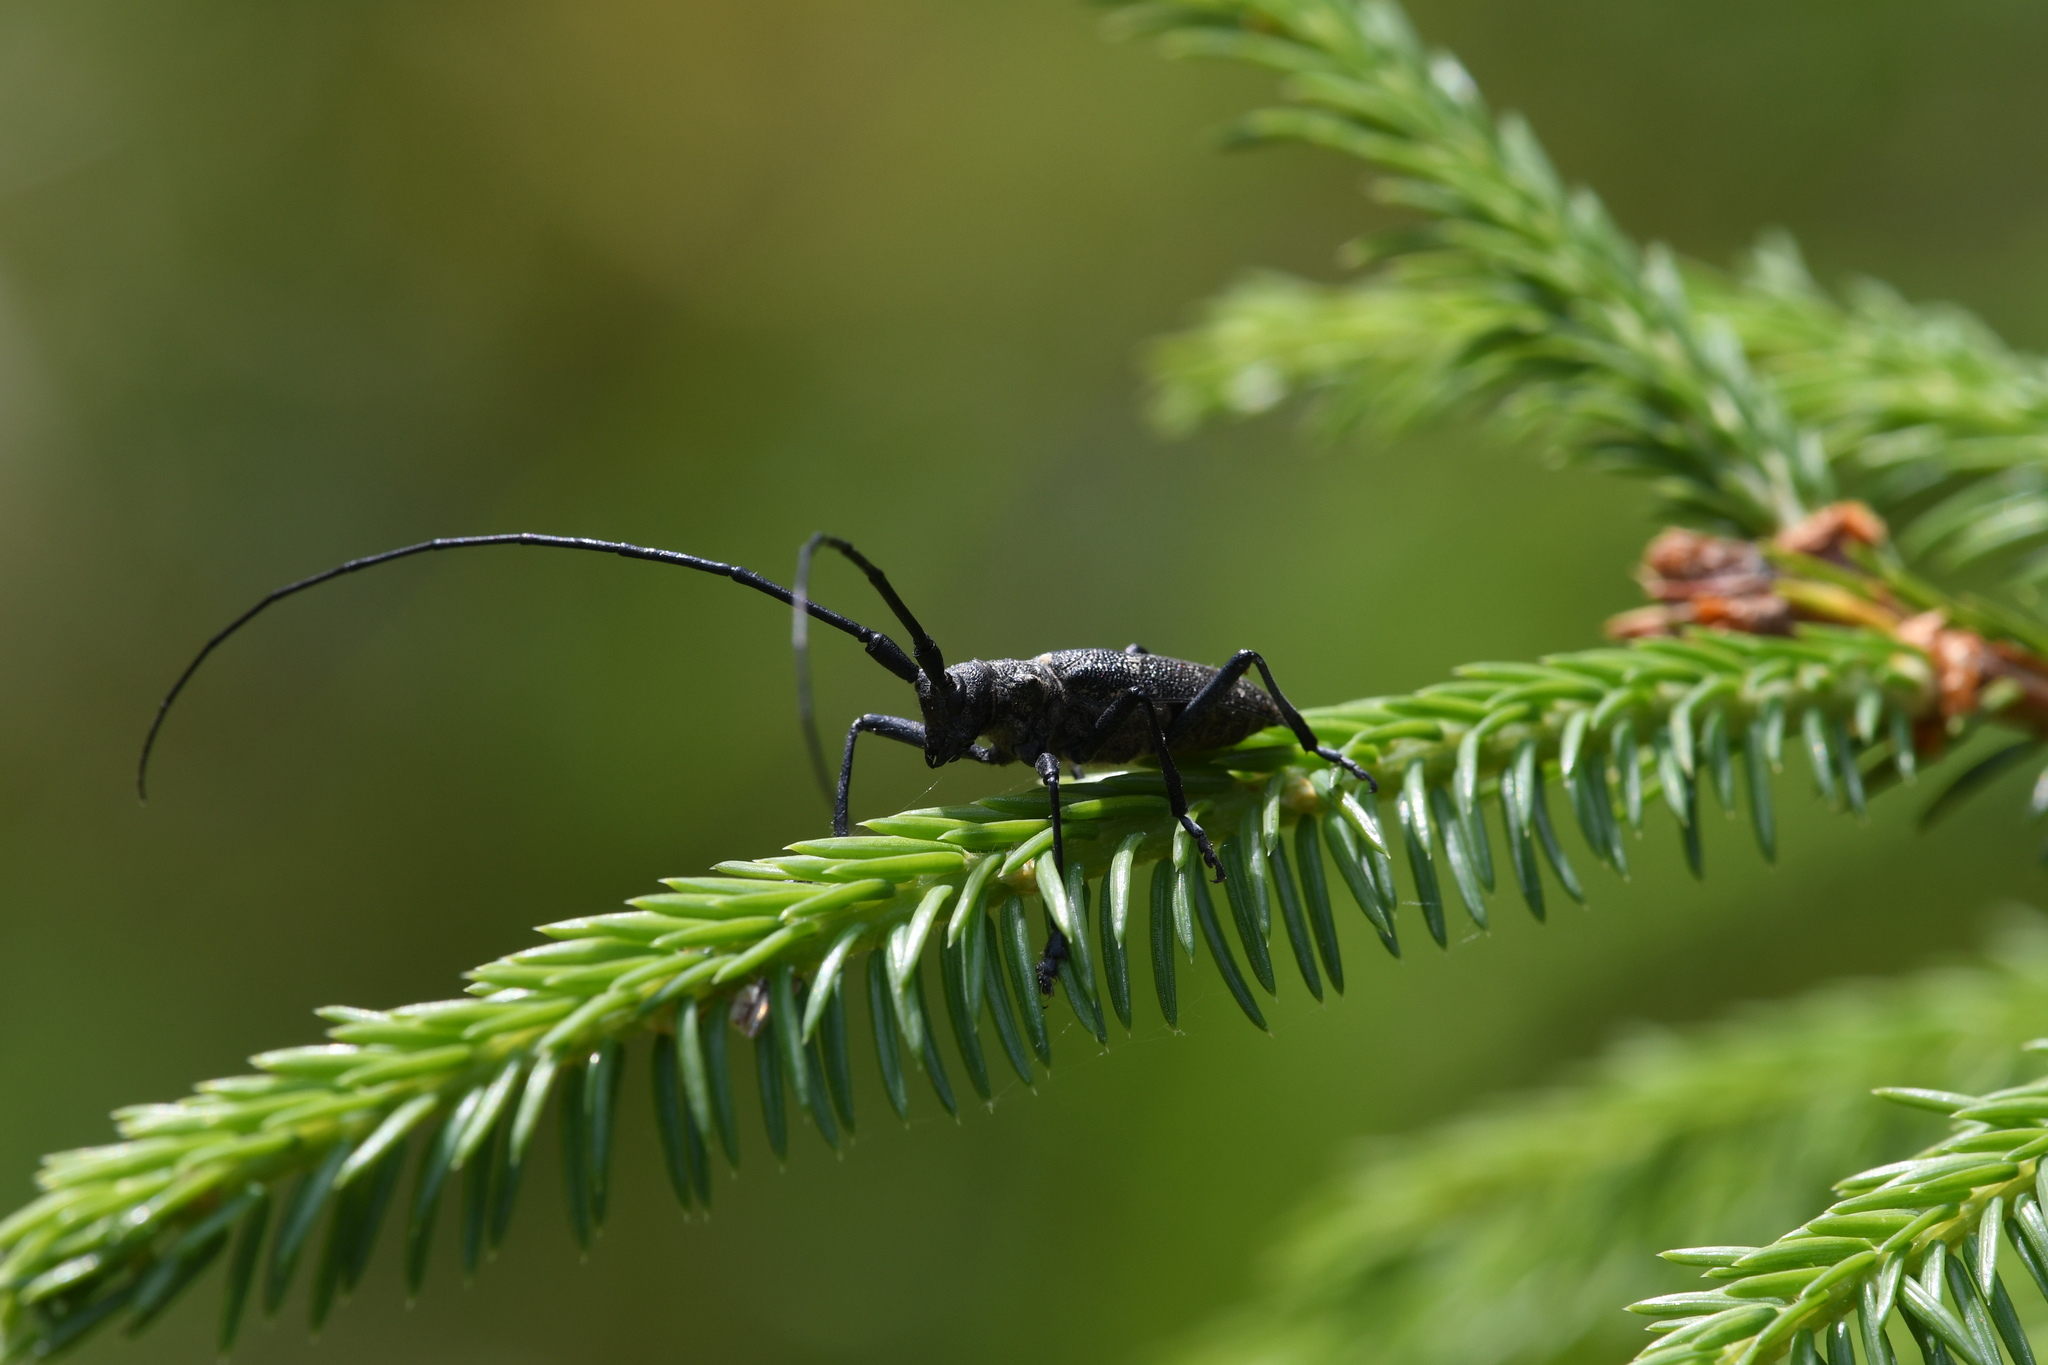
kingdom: Animalia
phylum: Arthropoda
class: Insecta
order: Coleoptera
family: Cerambycidae
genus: Monochamus
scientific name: Monochamus sutor
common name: Pine sawyer
